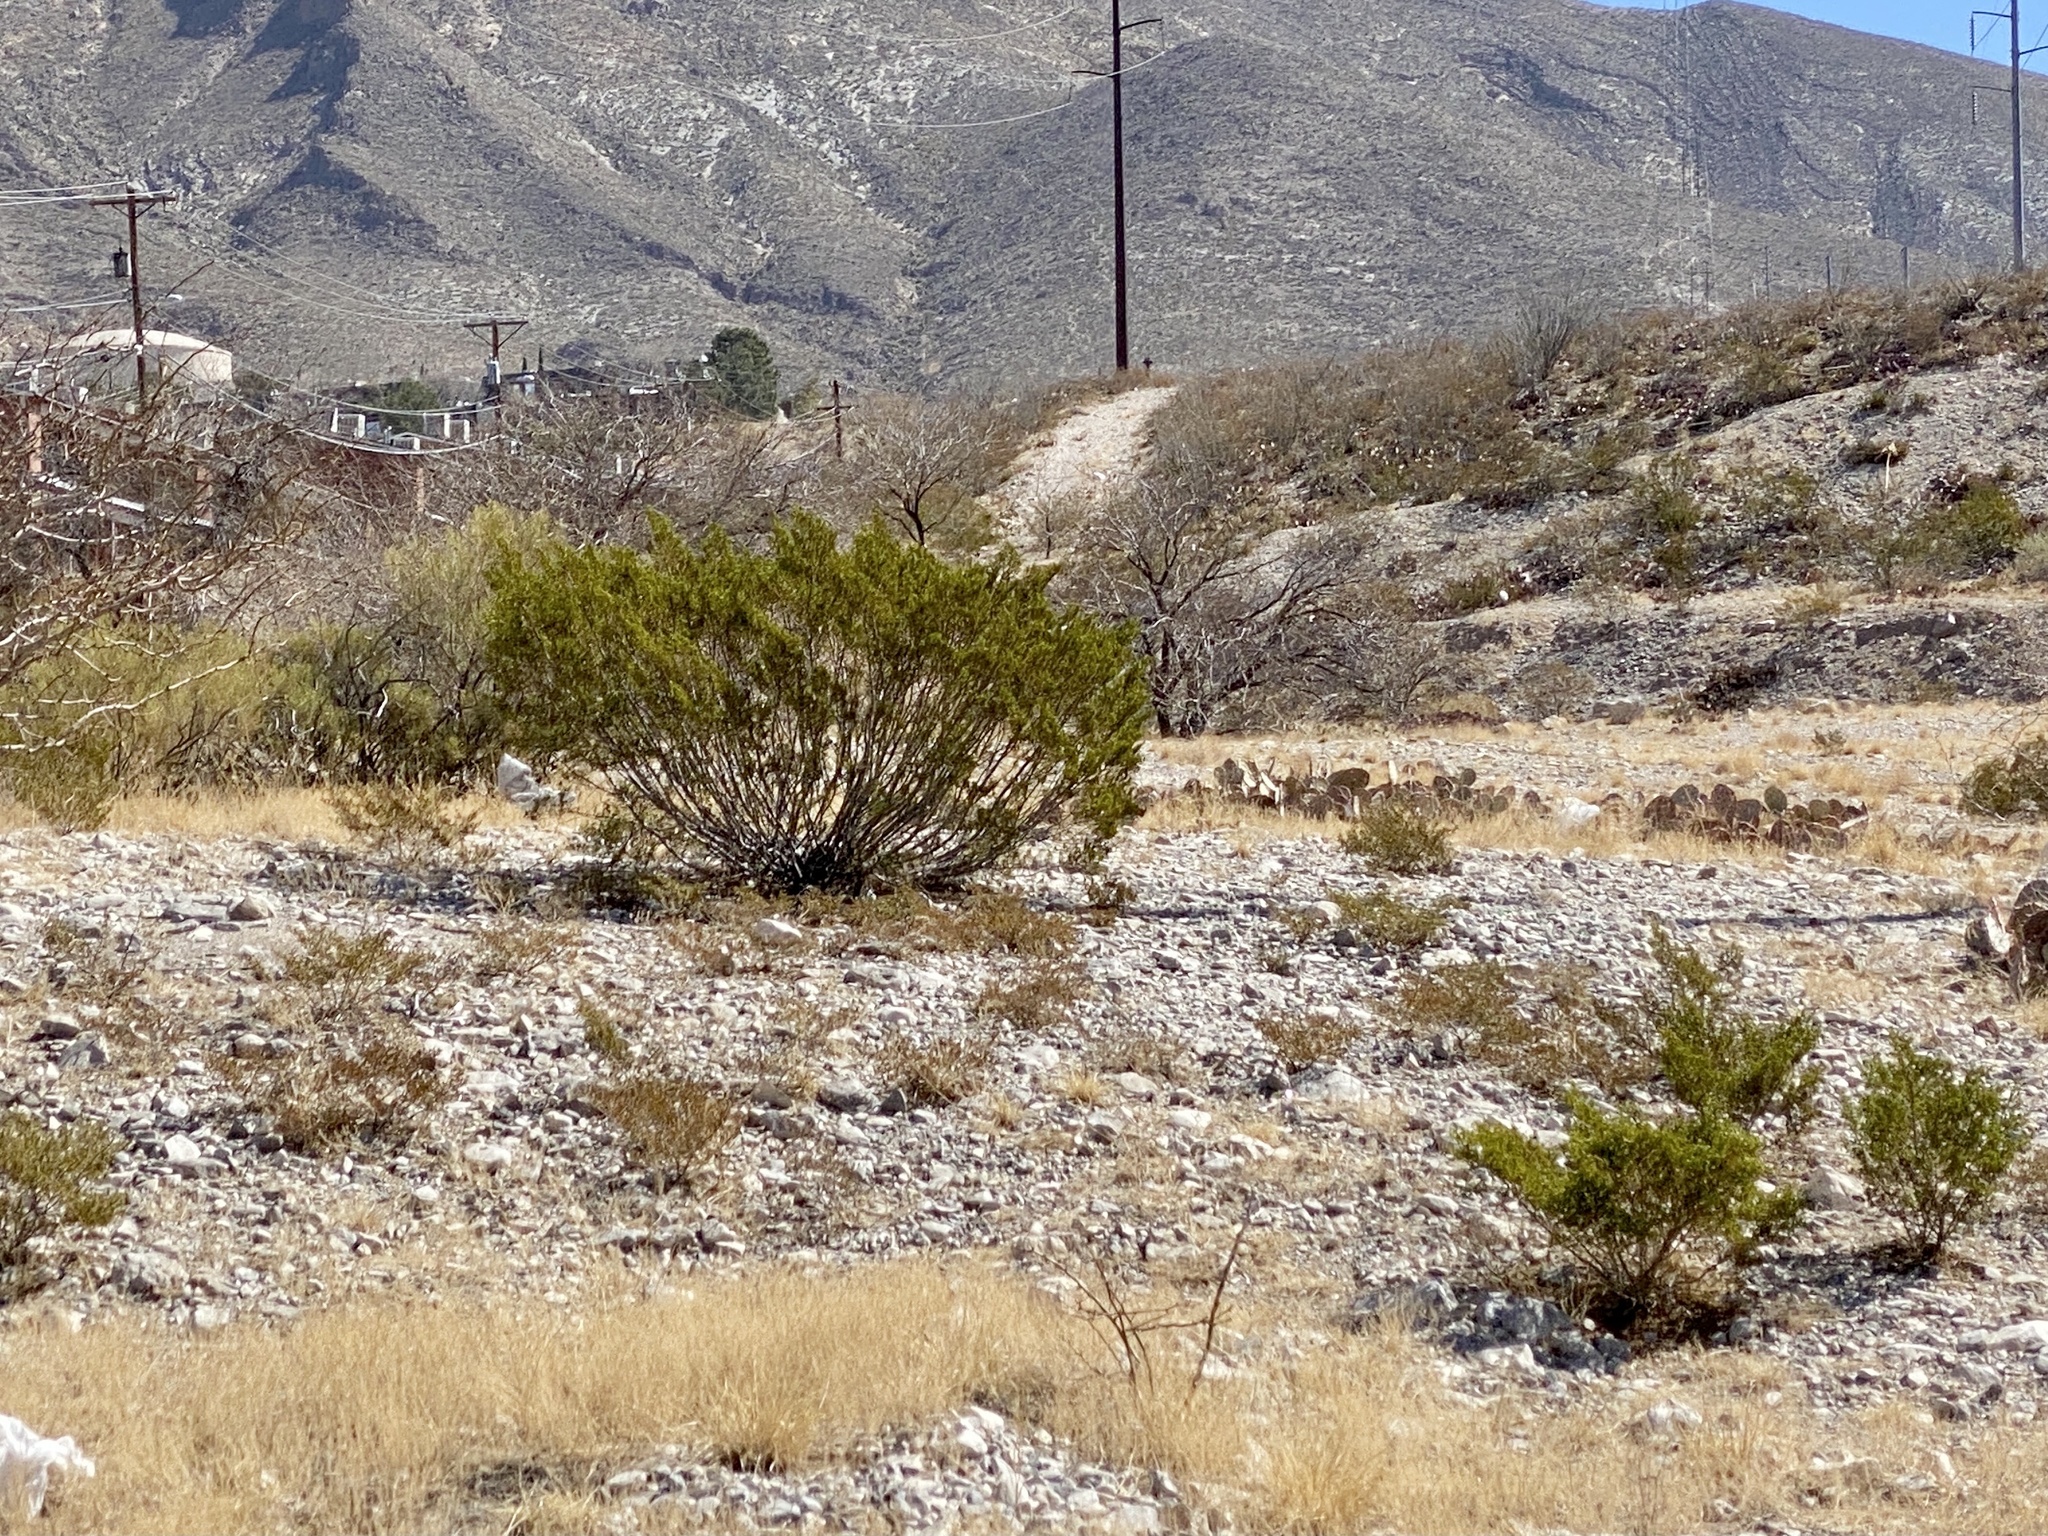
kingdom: Plantae
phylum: Tracheophyta
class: Magnoliopsida
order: Zygophyllales
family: Zygophyllaceae
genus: Larrea
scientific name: Larrea tridentata
